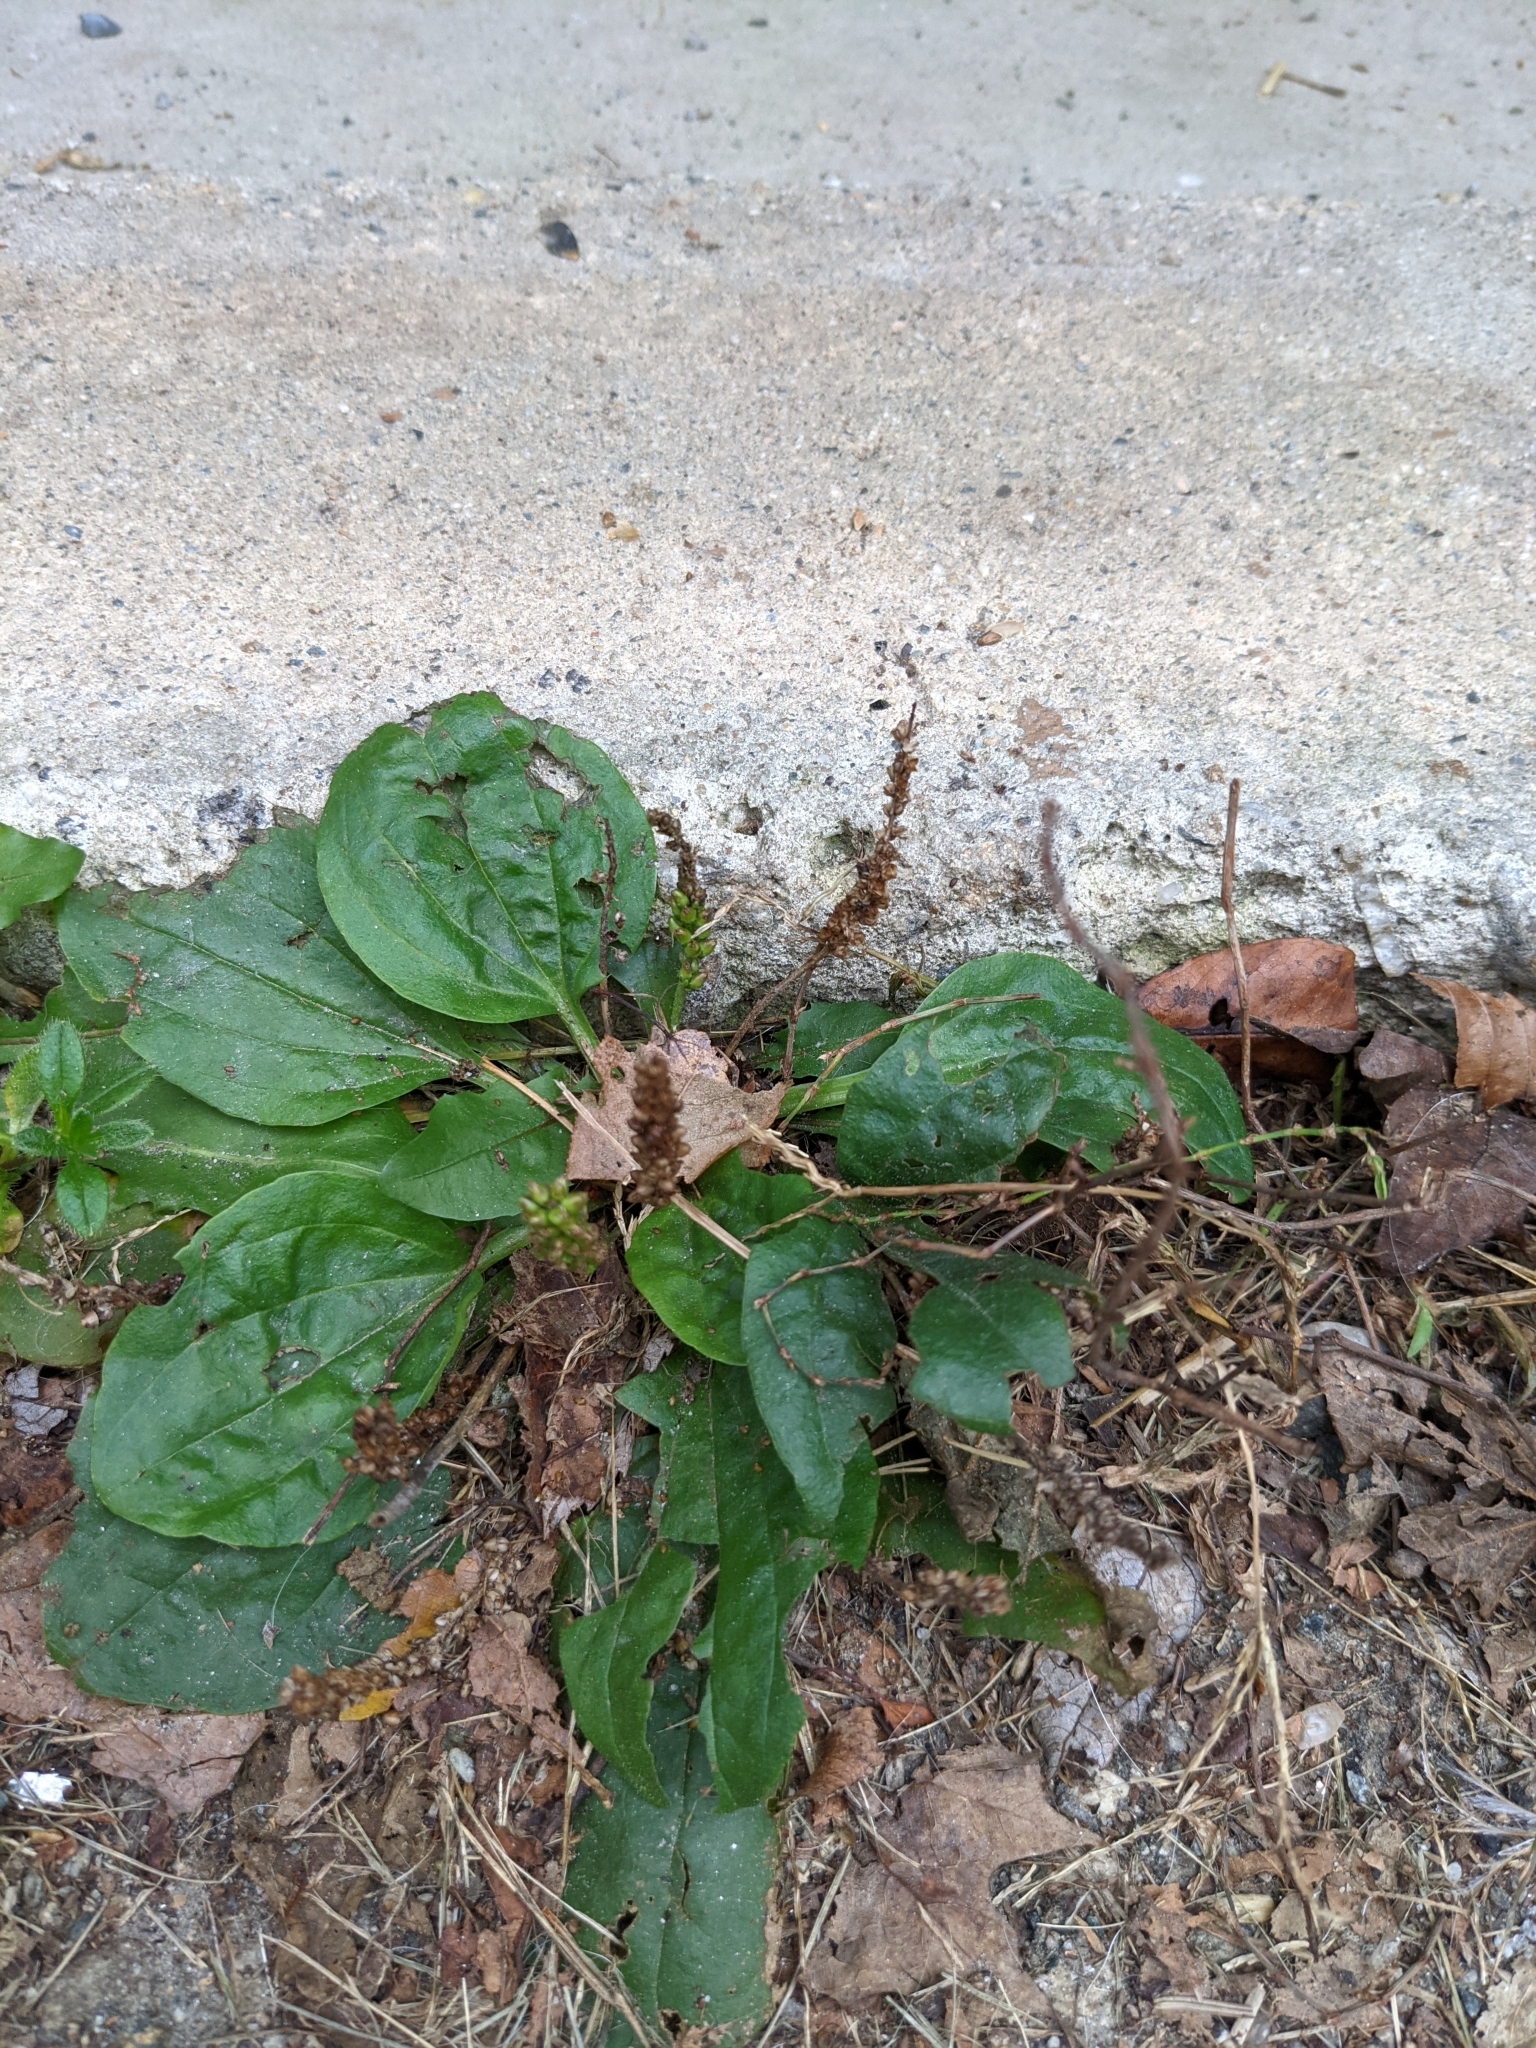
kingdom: Plantae
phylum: Tracheophyta
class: Magnoliopsida
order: Lamiales
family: Plantaginaceae
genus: Plantago
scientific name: Plantago major
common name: Common plantain
